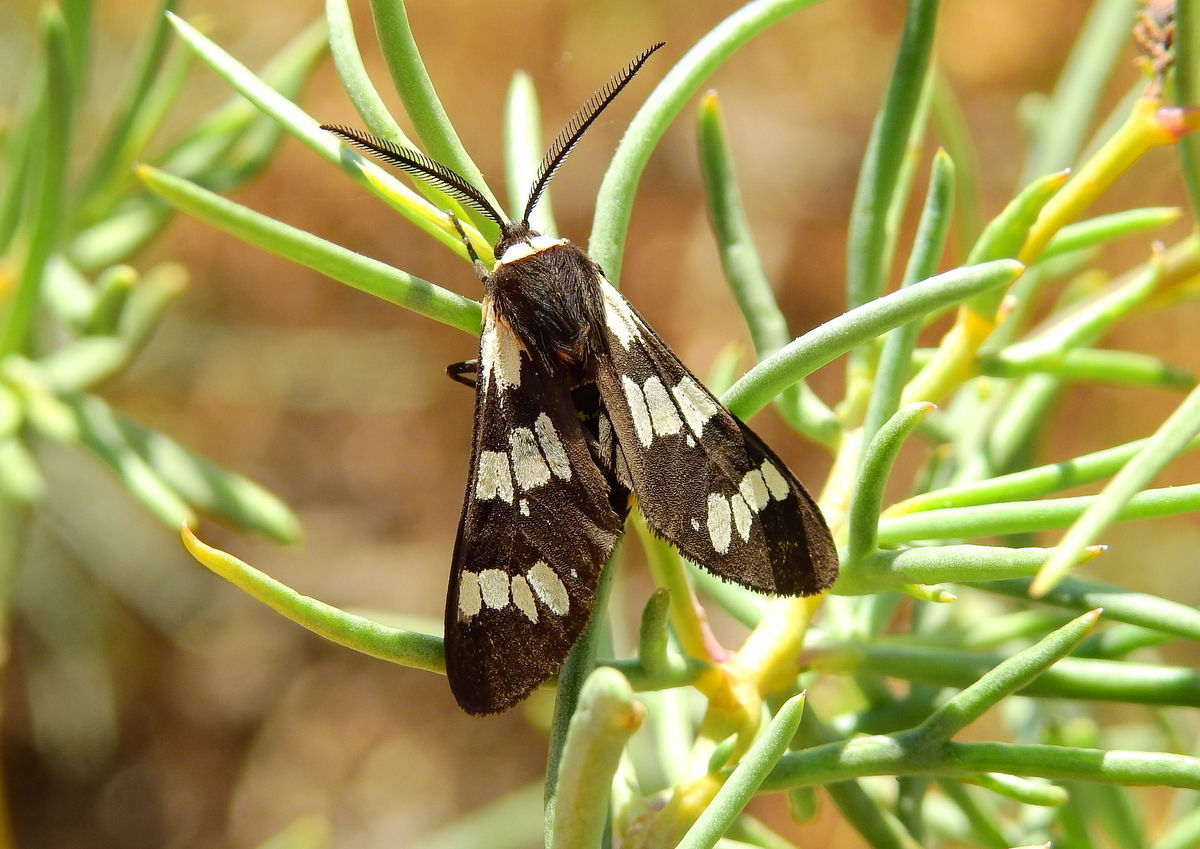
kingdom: Animalia
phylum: Arthropoda
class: Insecta
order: Lepidoptera
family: Erebidae
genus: Eurata
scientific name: Eurata
